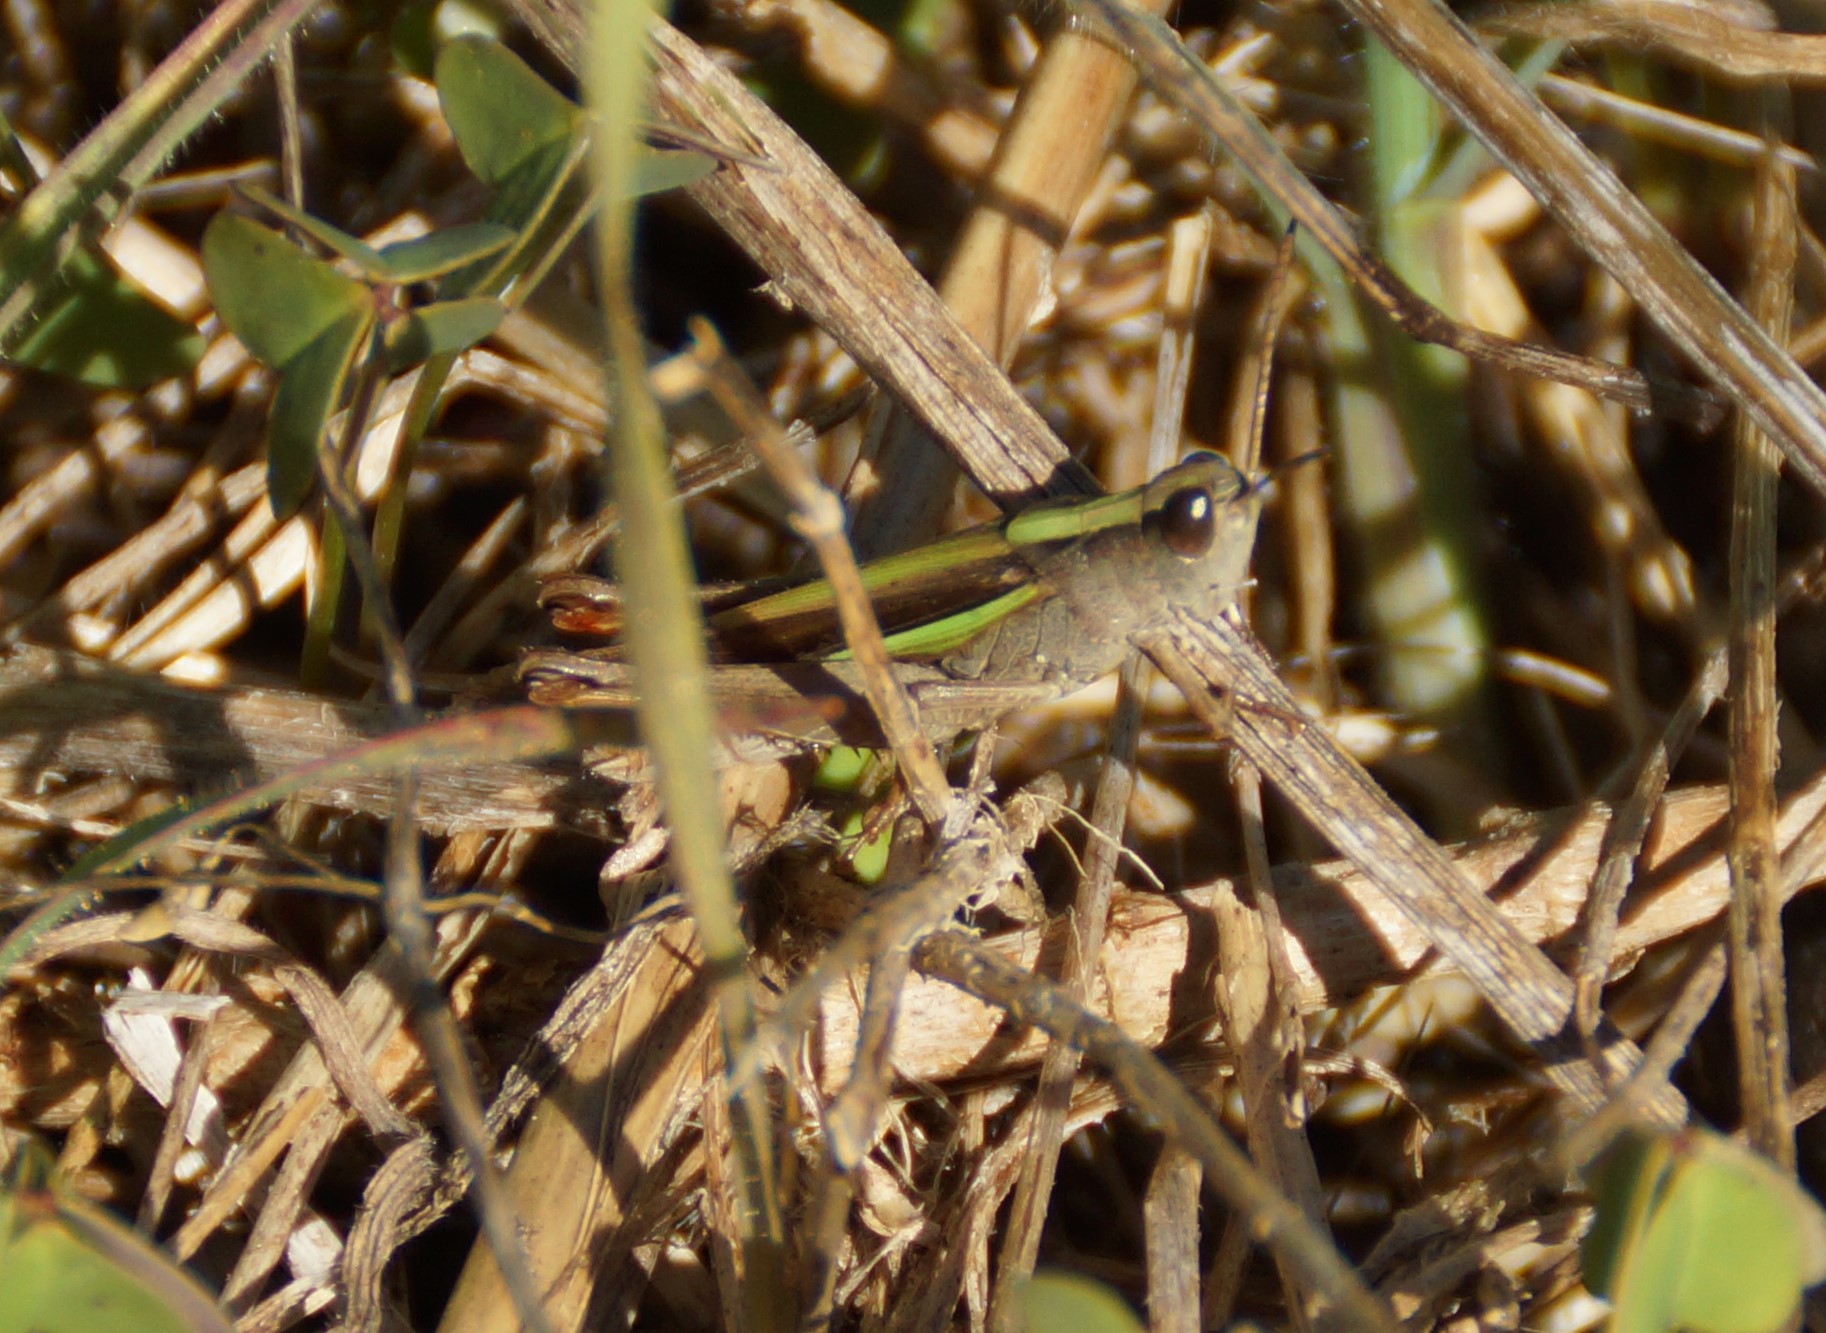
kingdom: Animalia
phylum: Arthropoda
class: Insecta
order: Orthoptera
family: Acrididae
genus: Schizobothrus
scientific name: Schizobothrus flavovittatus
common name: Disappearing grasshopper
